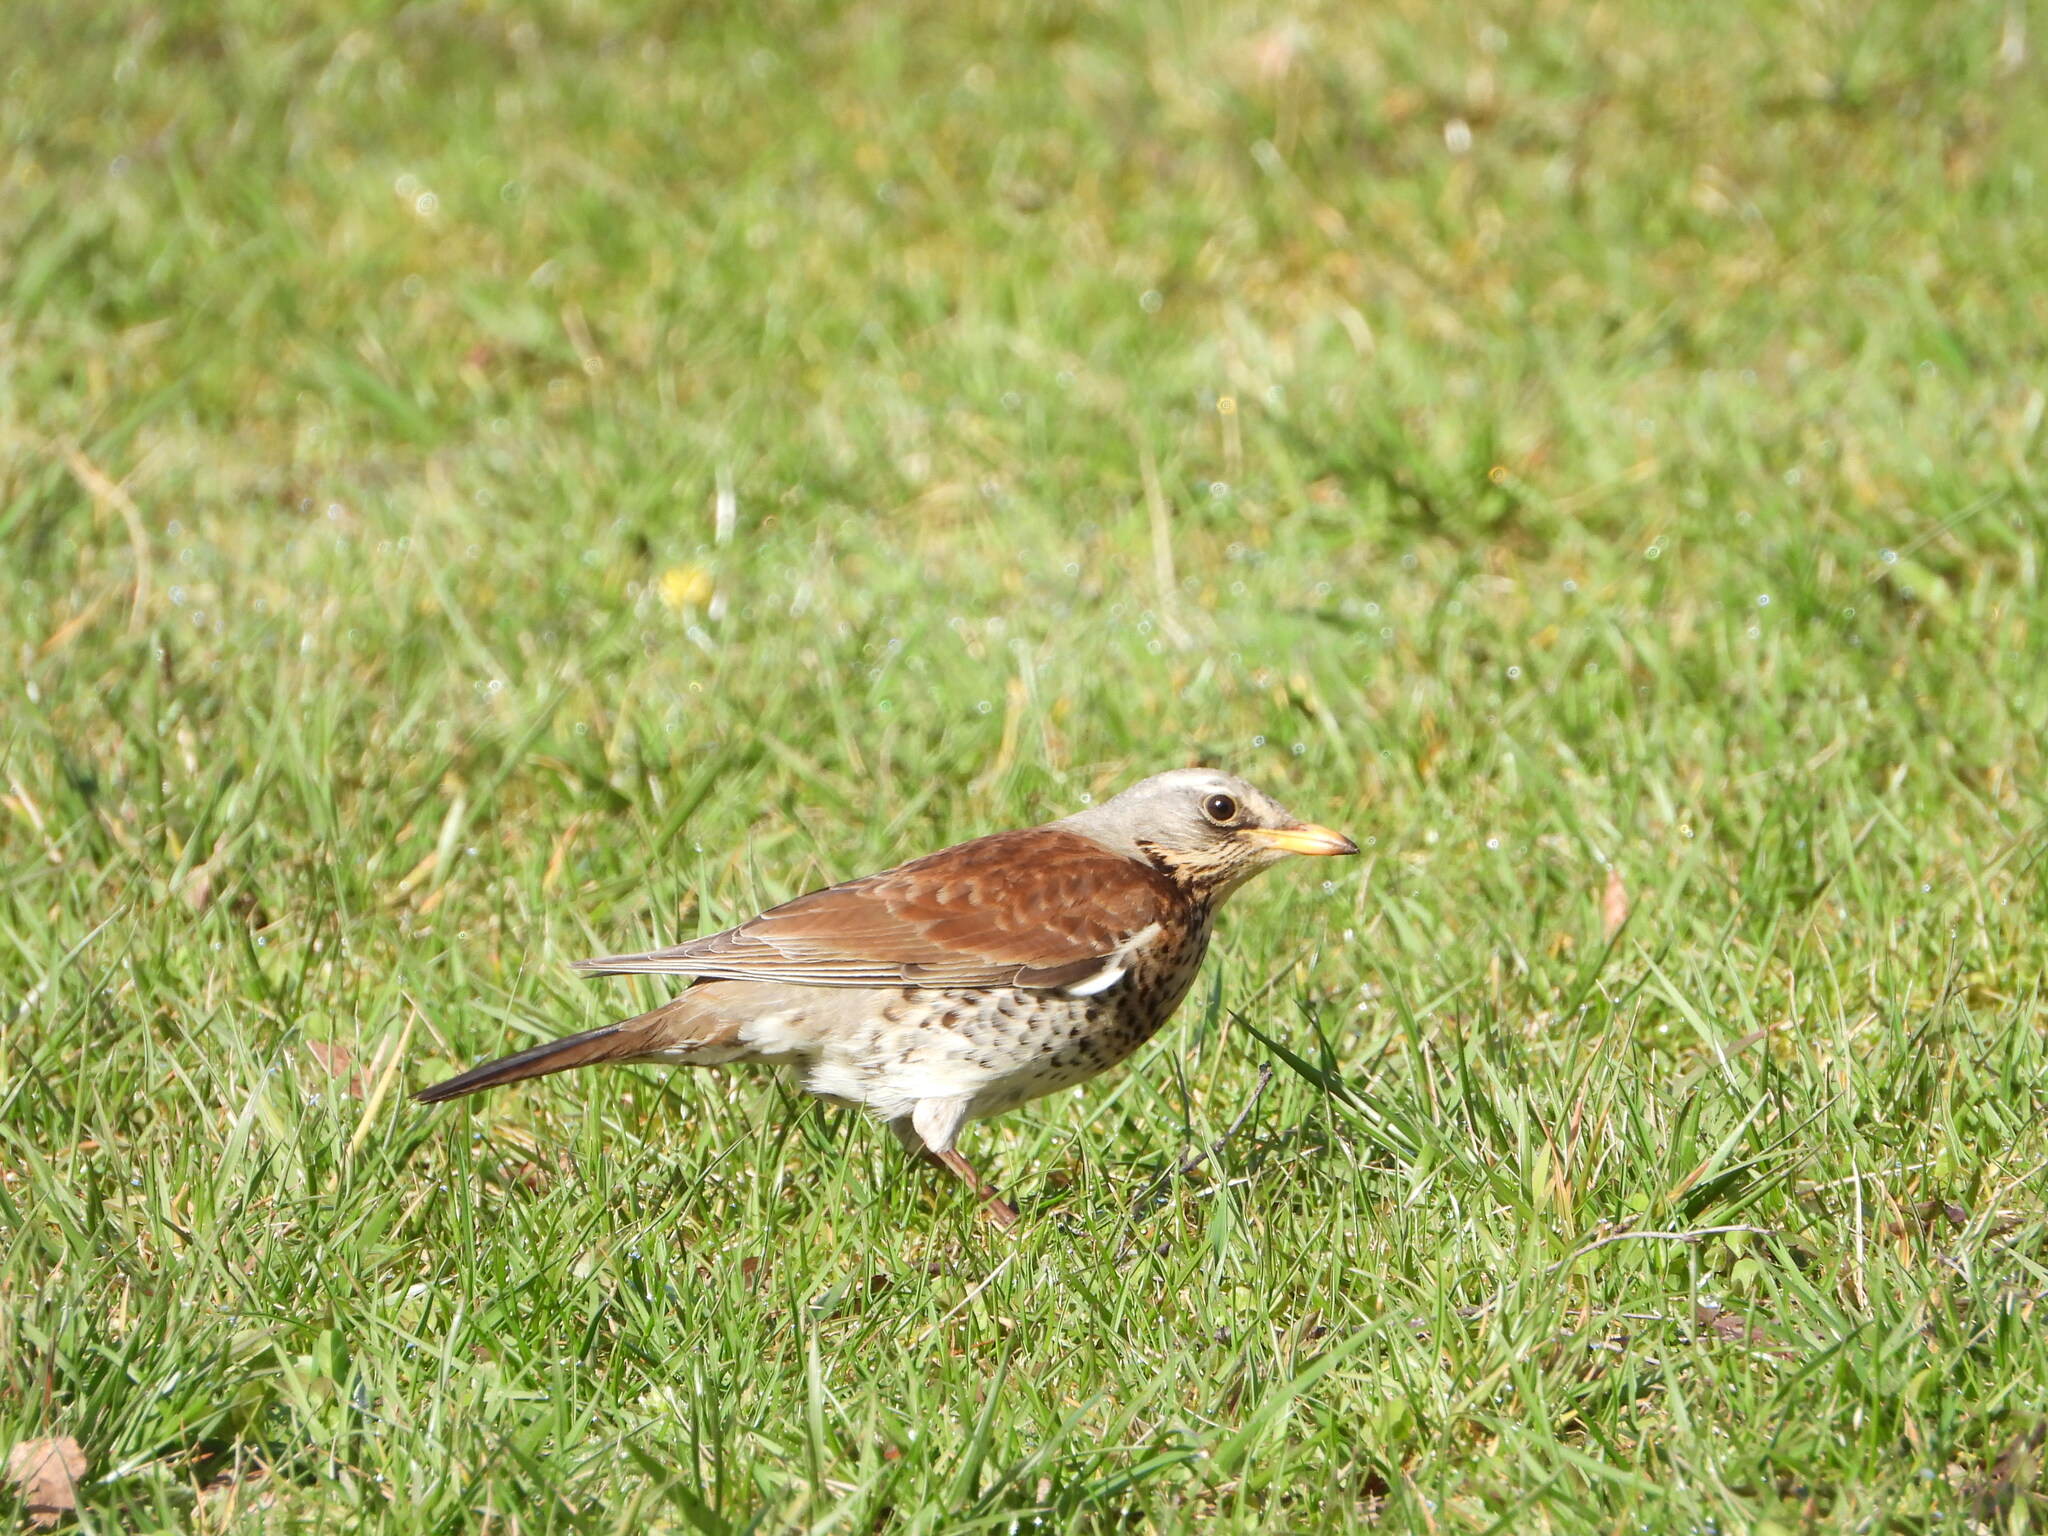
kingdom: Animalia
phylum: Chordata
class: Aves
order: Passeriformes
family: Turdidae
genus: Turdus
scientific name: Turdus pilaris
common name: Fieldfare
